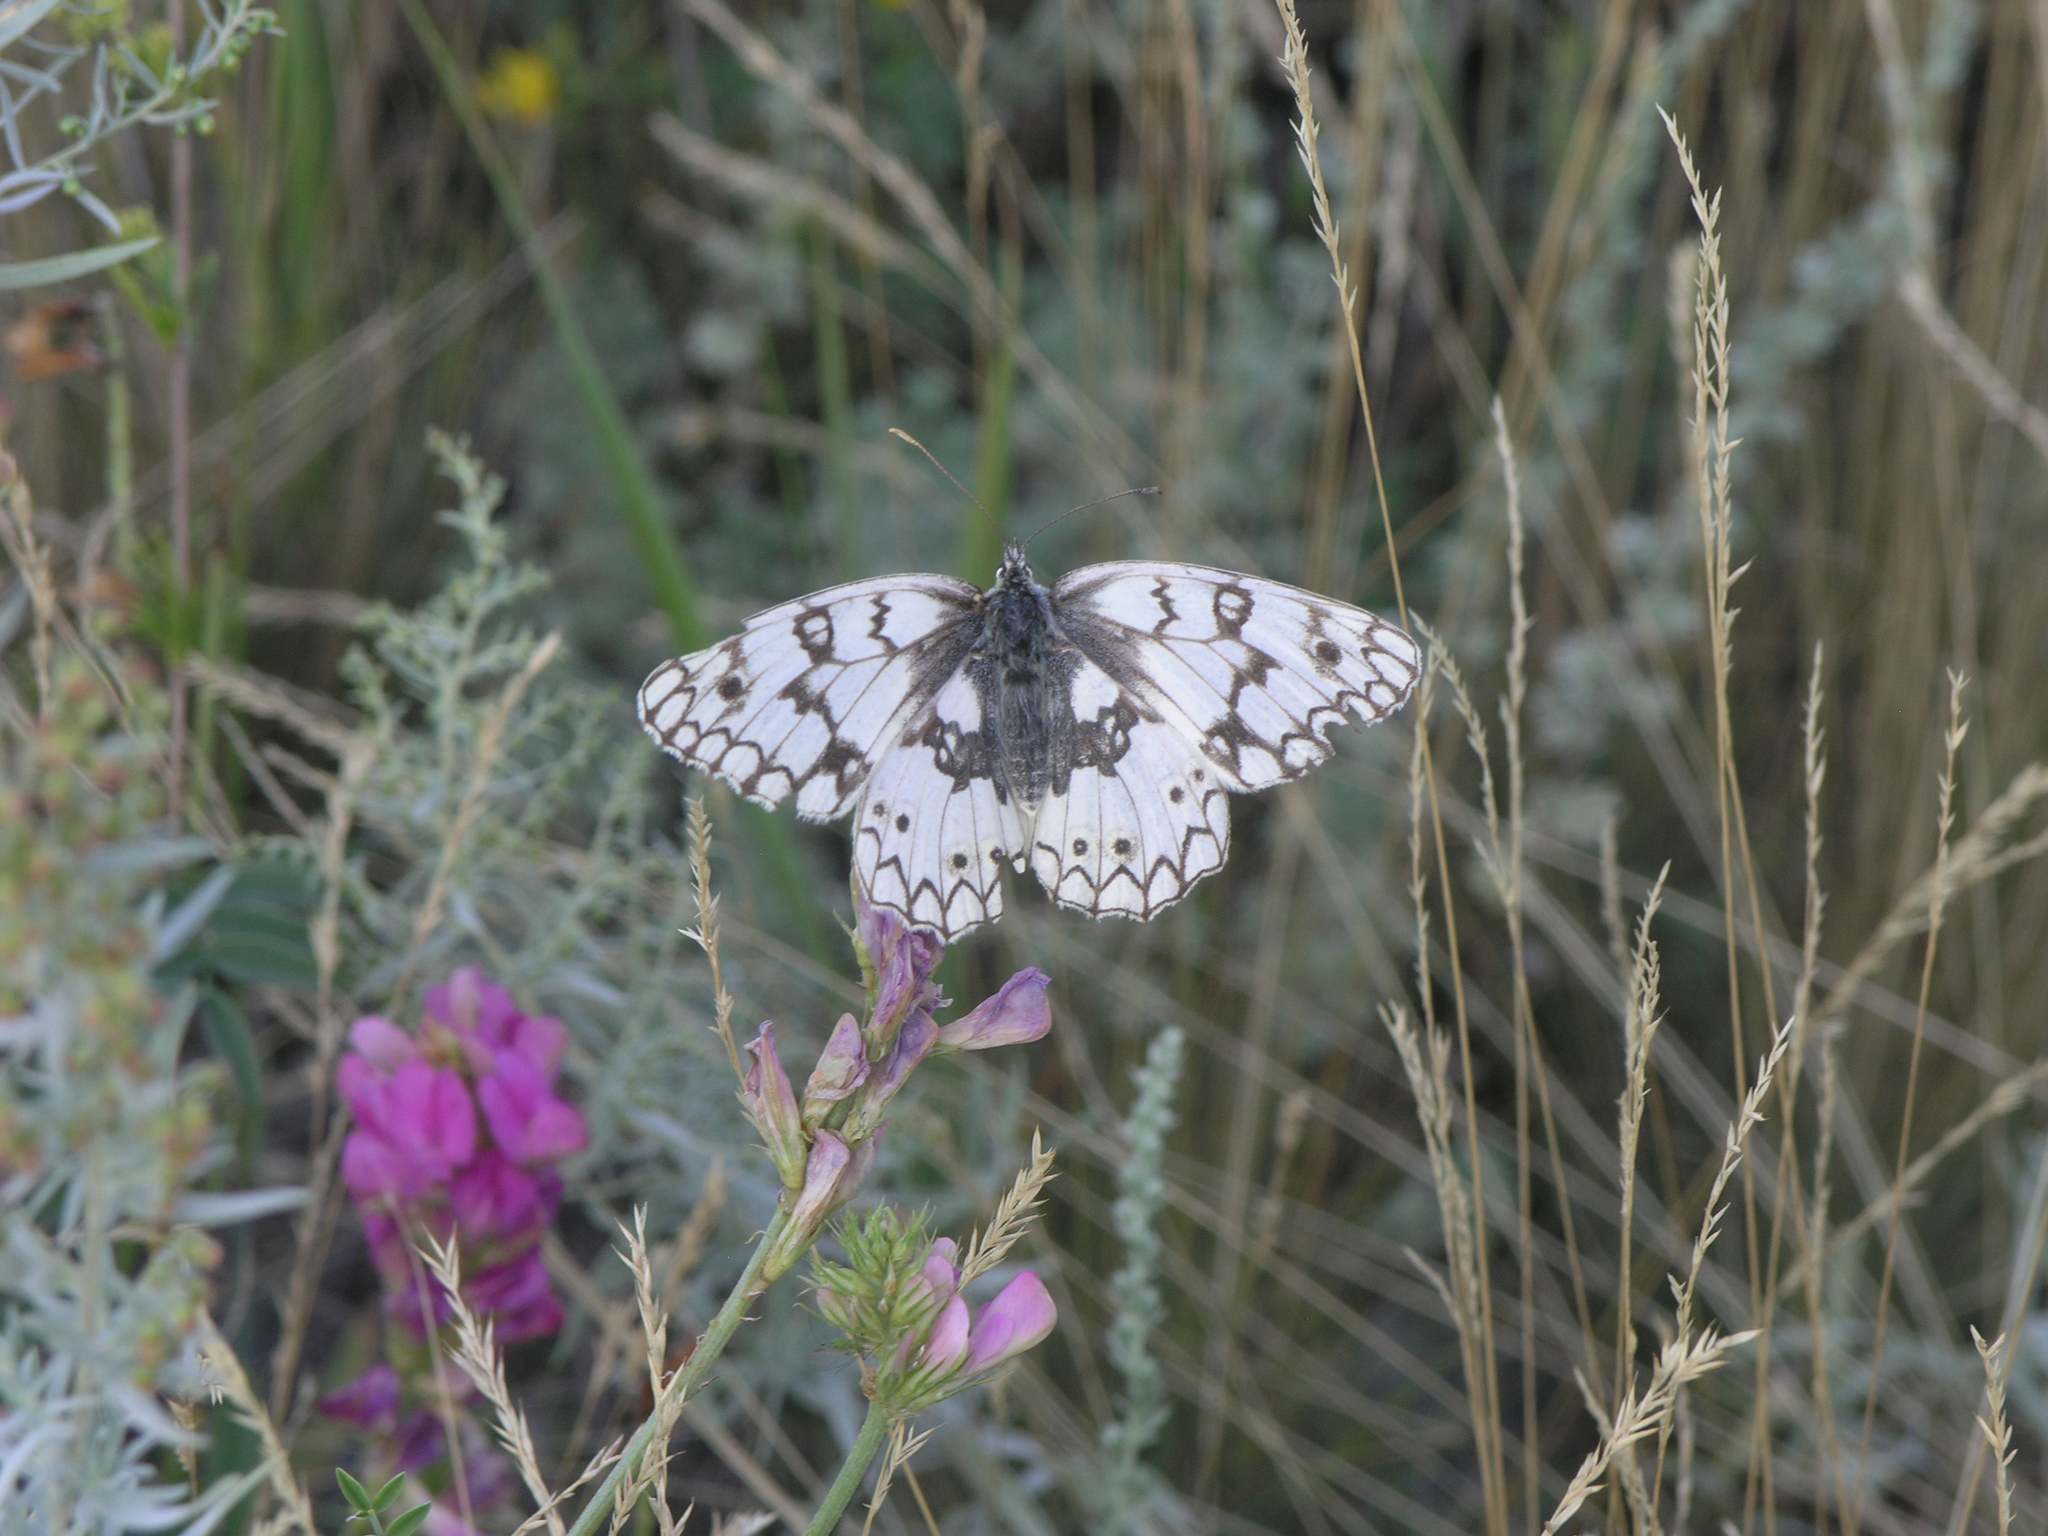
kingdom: Animalia
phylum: Arthropoda
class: Insecta
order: Lepidoptera
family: Nymphalidae
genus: Melanargia
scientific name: Melanargia japygia
